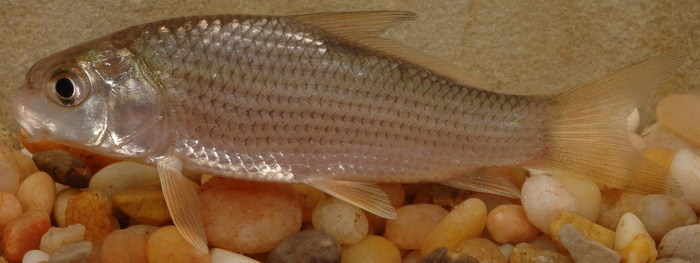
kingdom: Animalia
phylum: Chordata
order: Cypriniformes
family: Catostomidae
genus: Carpiodes
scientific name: Carpiodes carpio
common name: River carpsucker
